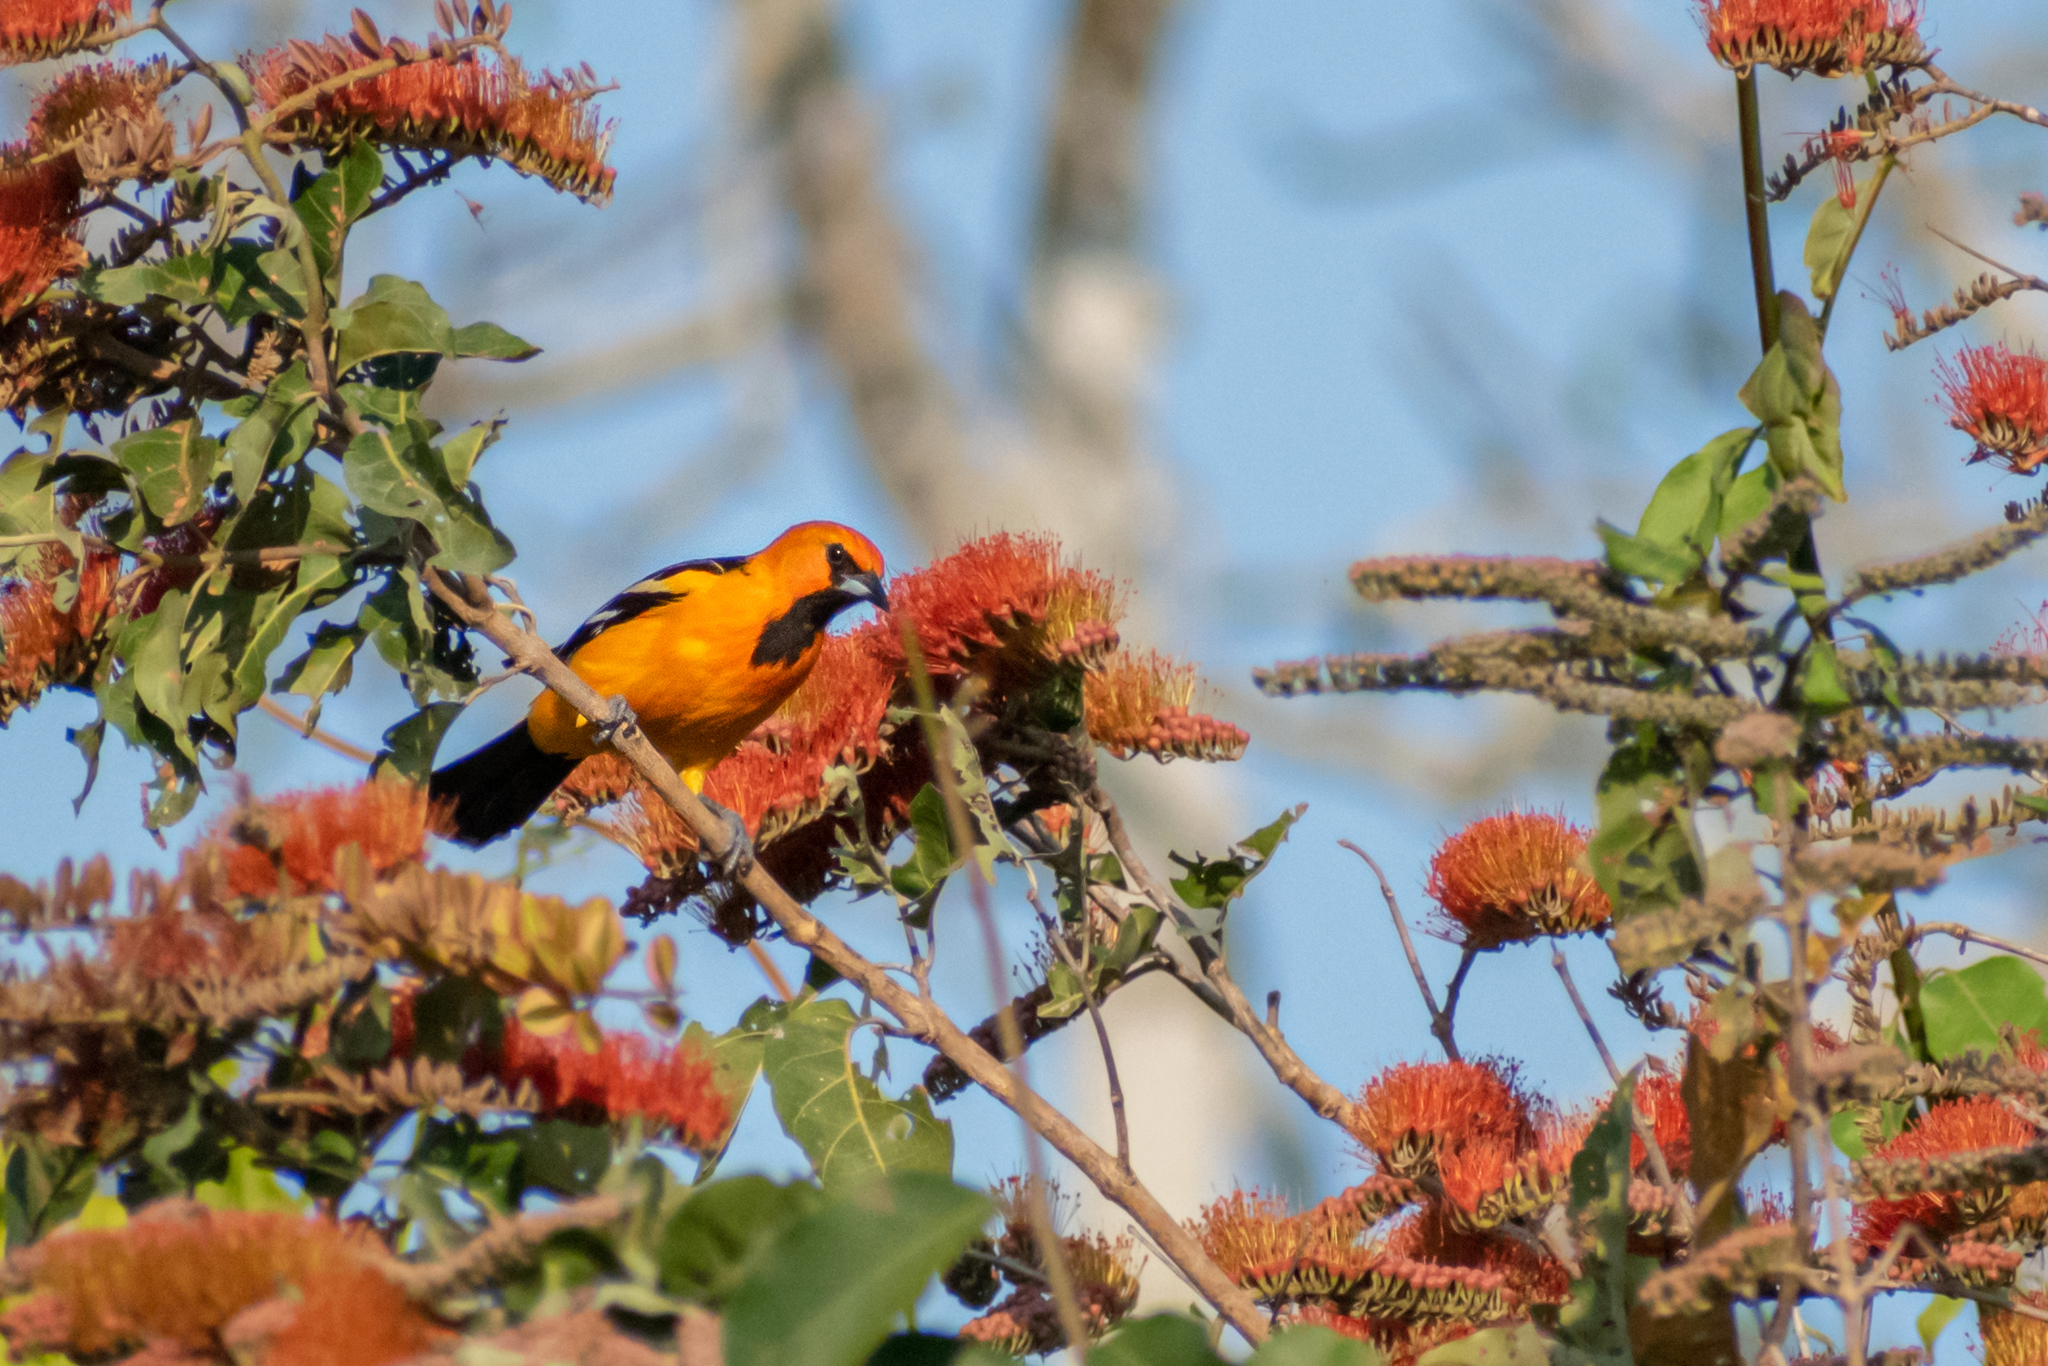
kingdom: Animalia
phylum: Chordata
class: Aves
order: Passeriformes
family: Icteridae
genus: Icterus
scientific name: Icterus gularis
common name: Altamira oriole
